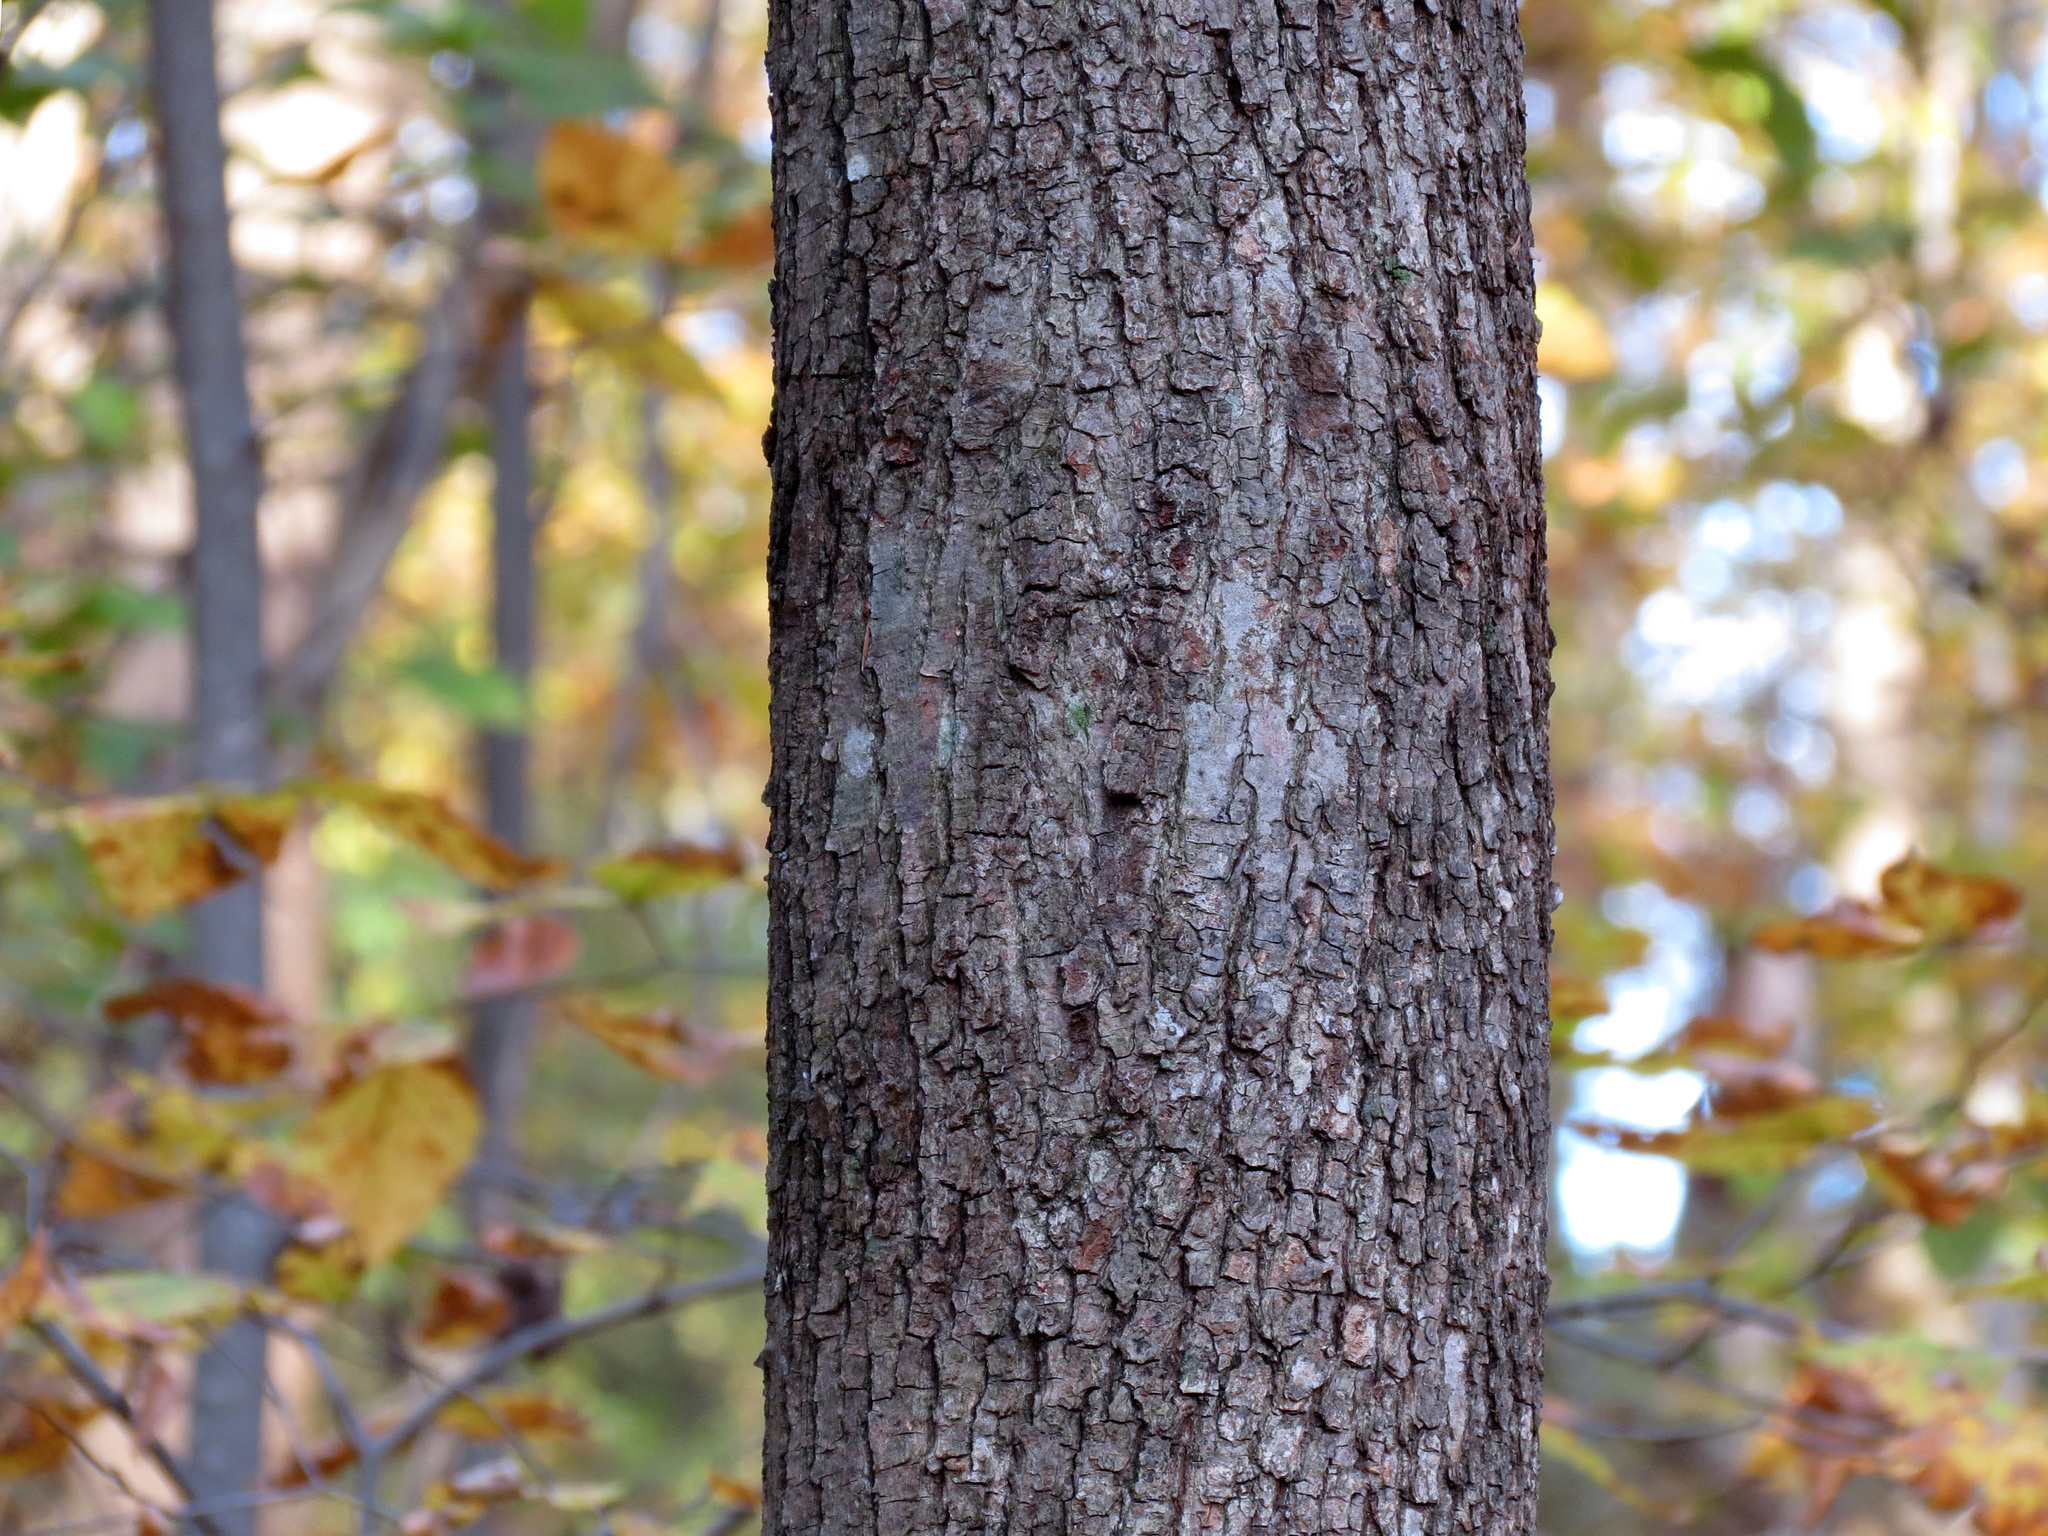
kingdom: Plantae
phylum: Tracheophyta
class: Magnoliopsida
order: Malvales
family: Malvaceae
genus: Tilia
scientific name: Tilia americana
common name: Basswood
